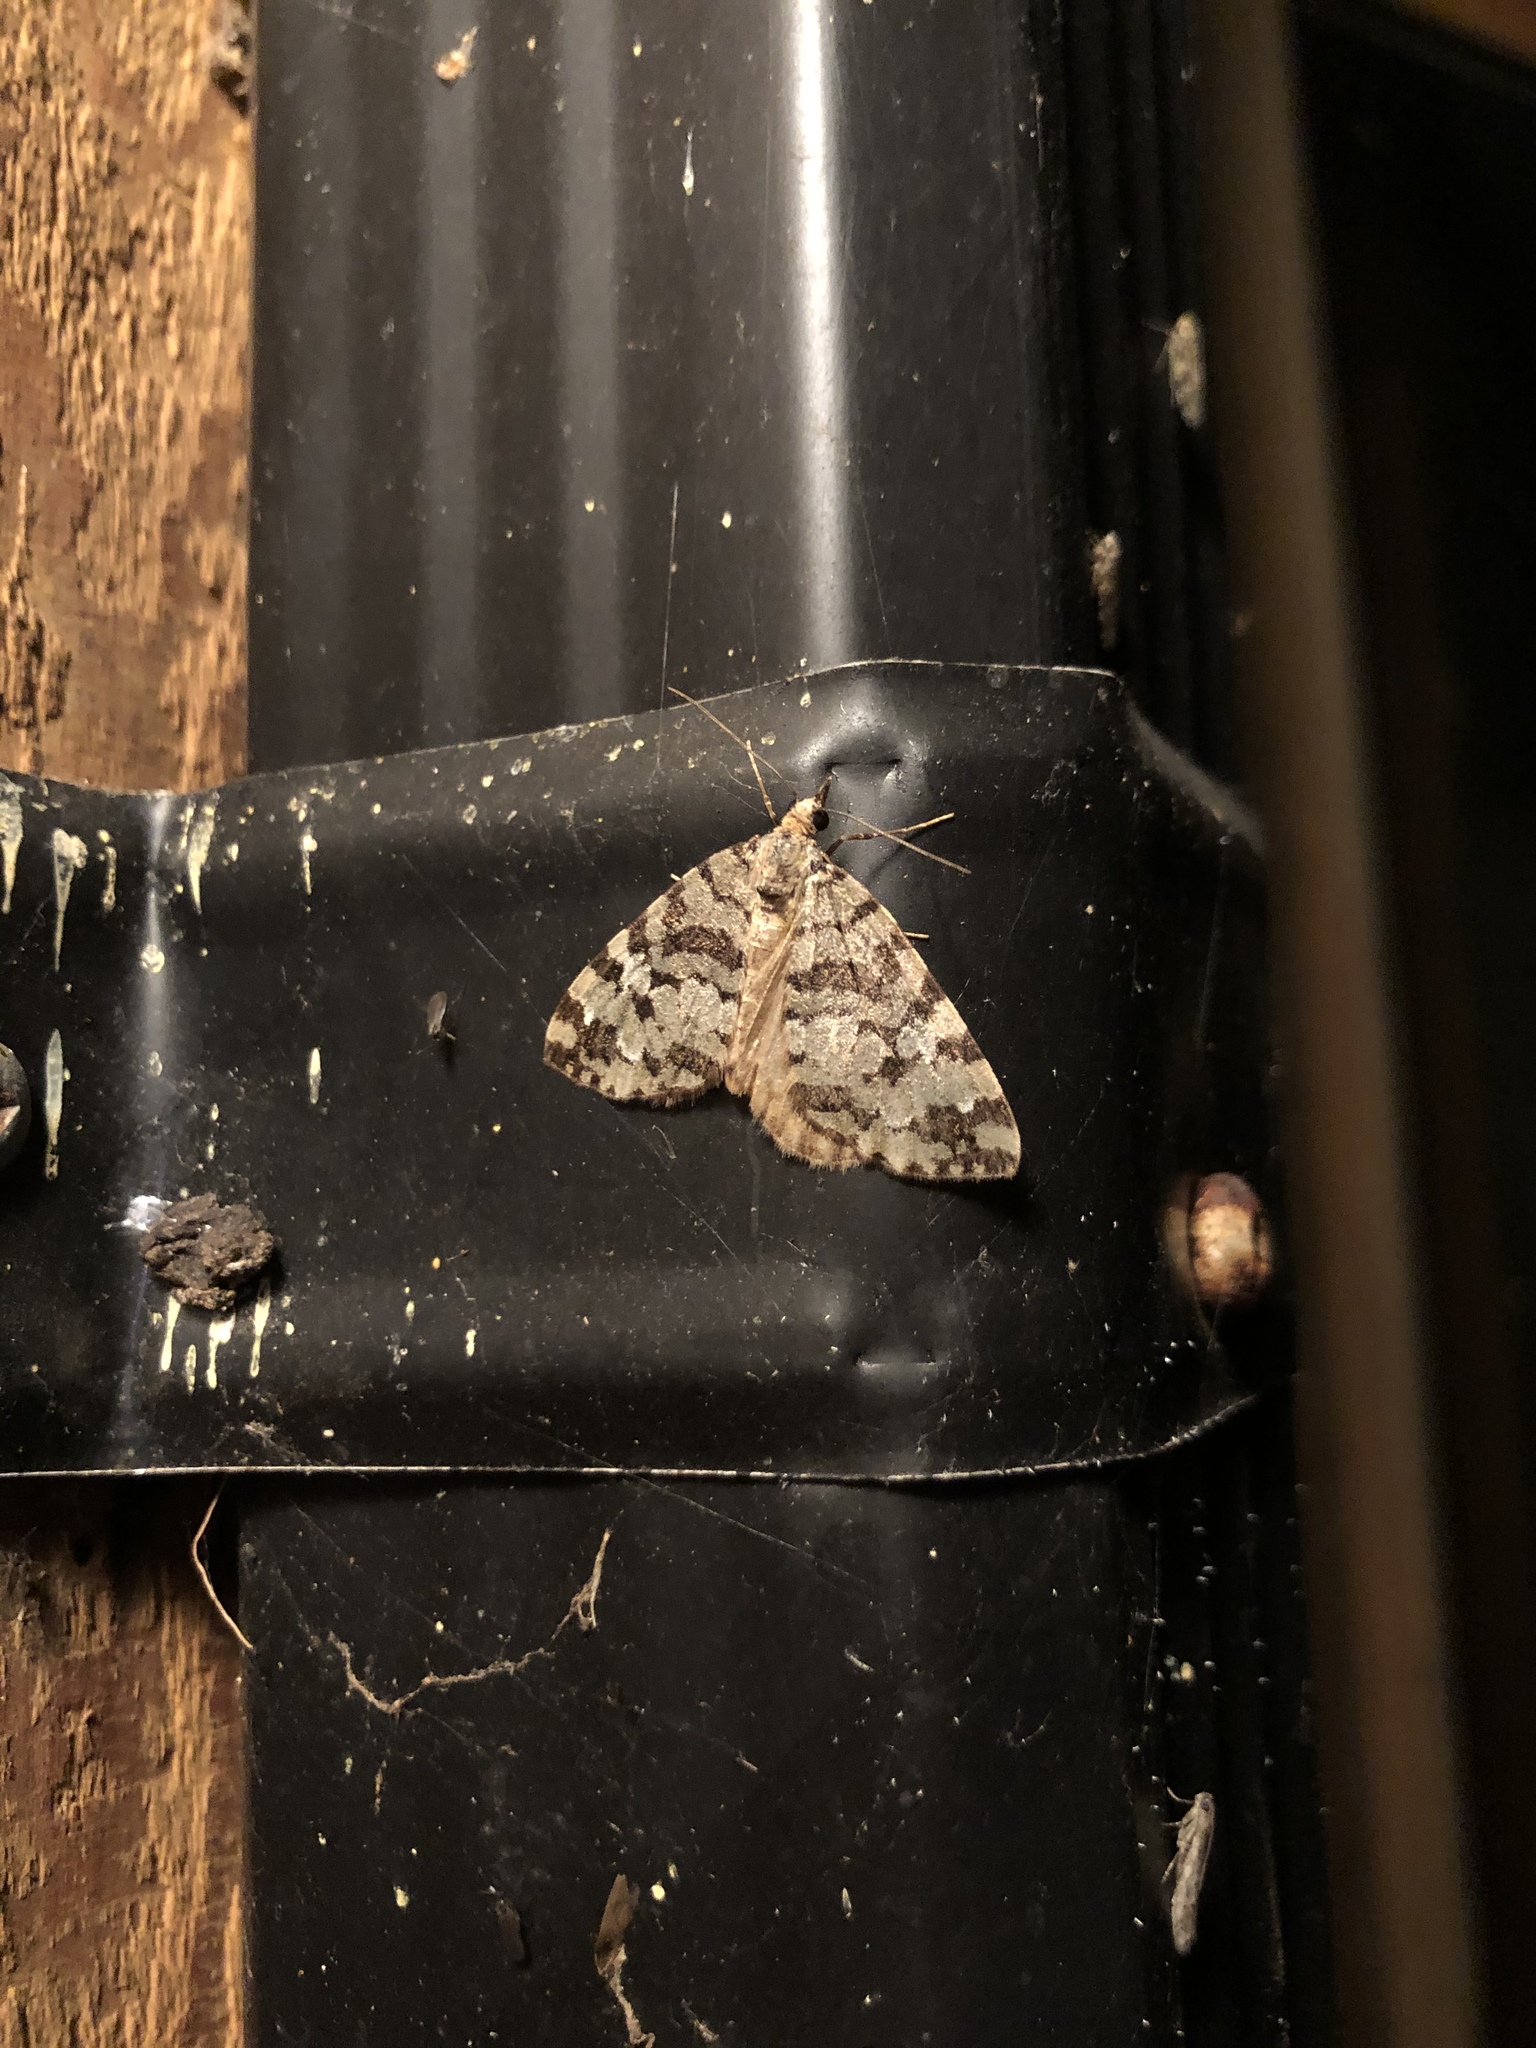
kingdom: Animalia
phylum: Arthropoda
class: Insecta
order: Lepidoptera
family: Geometridae
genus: Hydriomena
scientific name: Hydriomena speciosata
